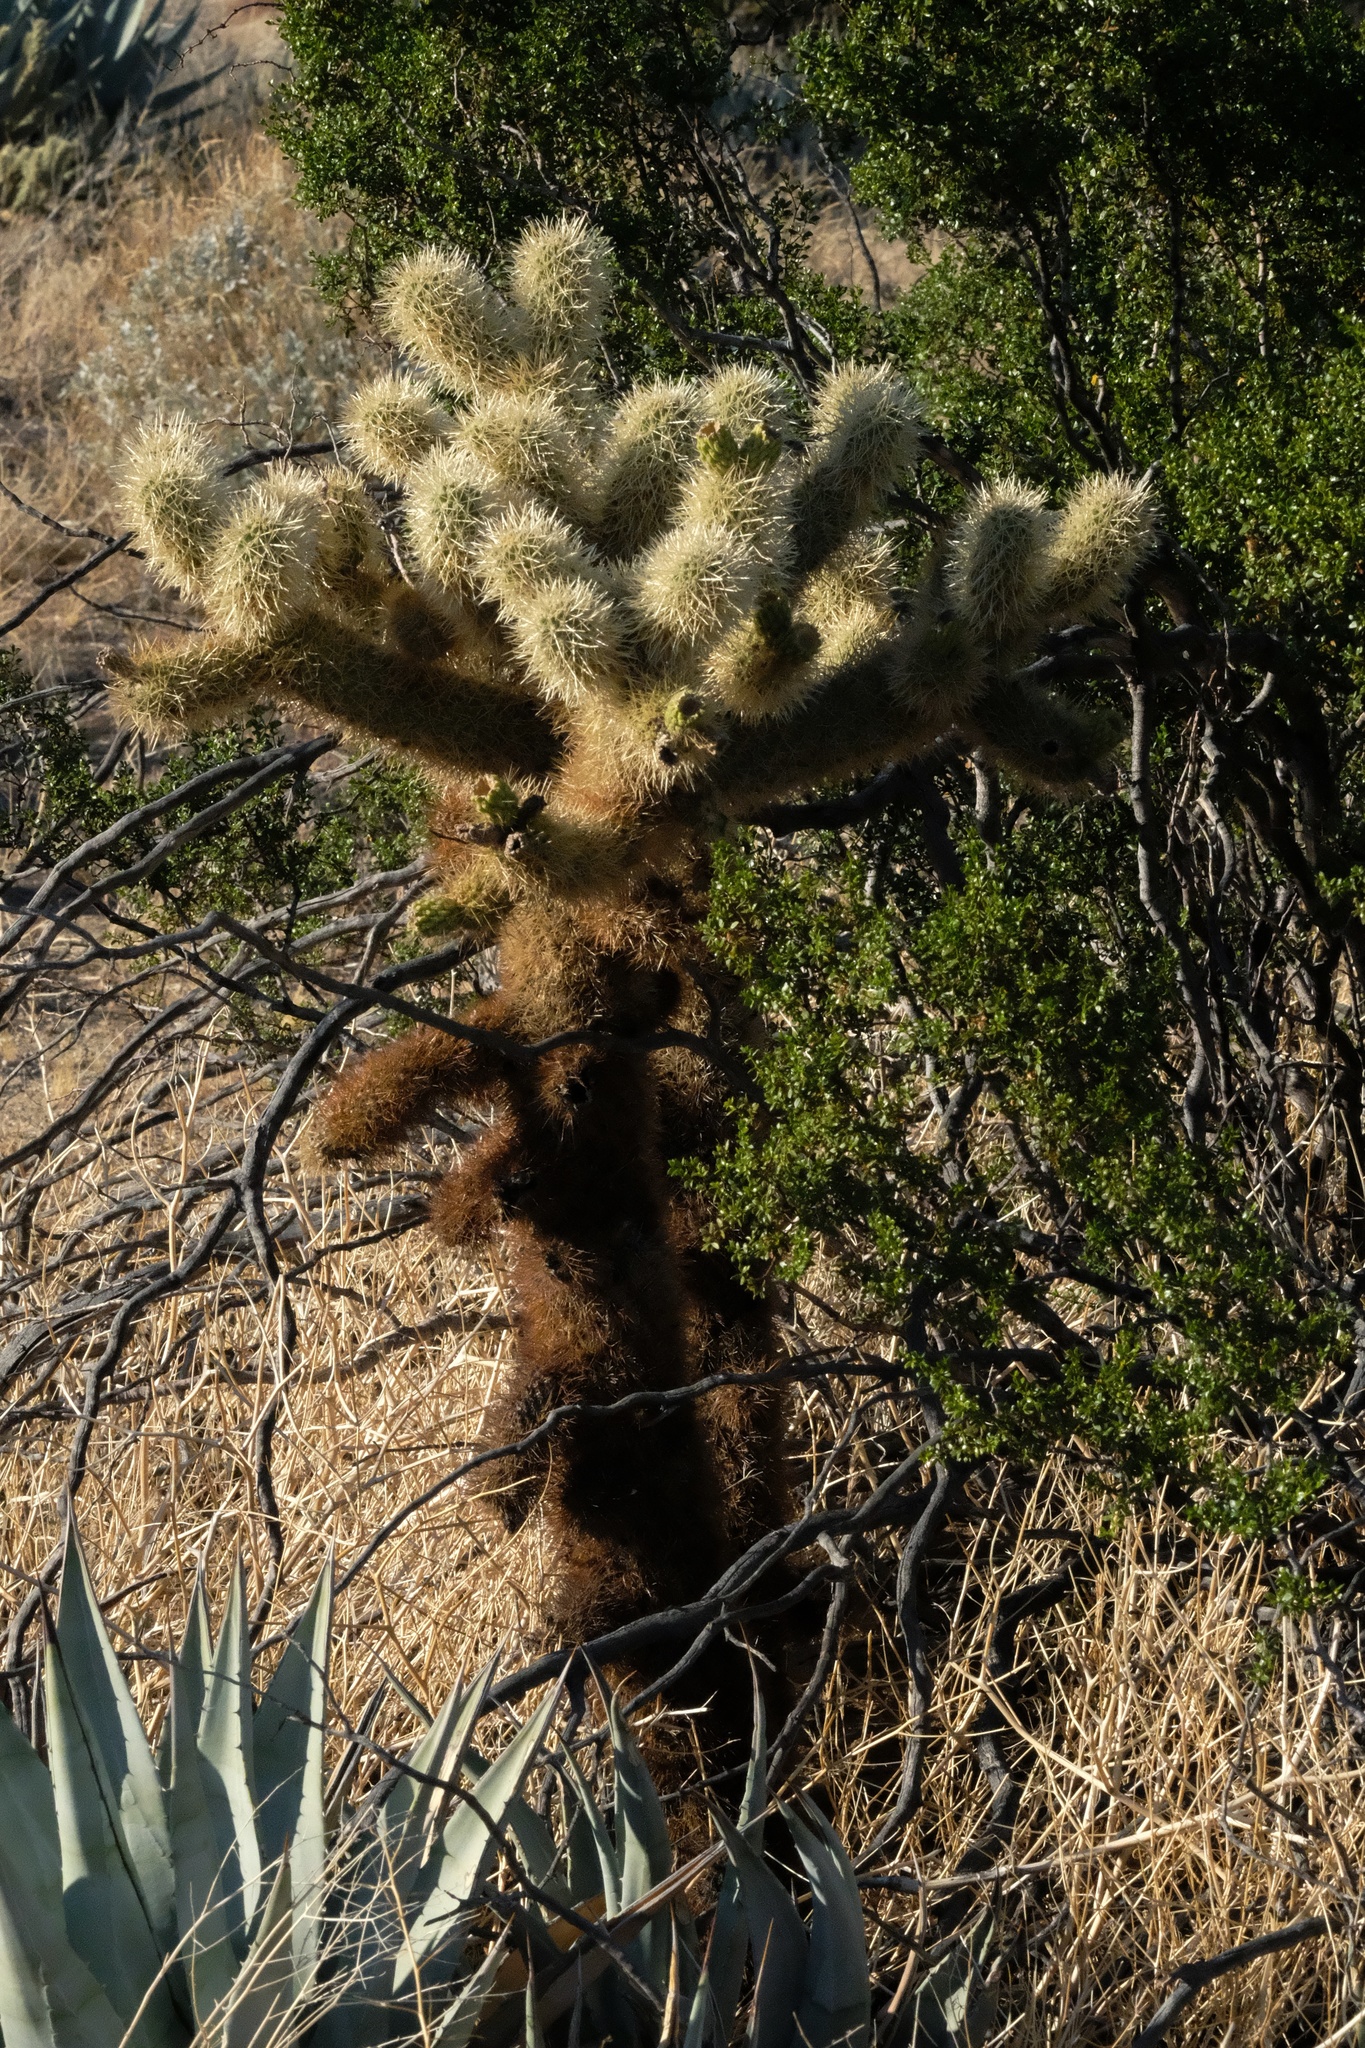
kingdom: Plantae
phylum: Tracheophyta
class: Magnoliopsida
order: Caryophyllales
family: Cactaceae
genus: Cylindropuntia
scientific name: Cylindropuntia fosbergii
